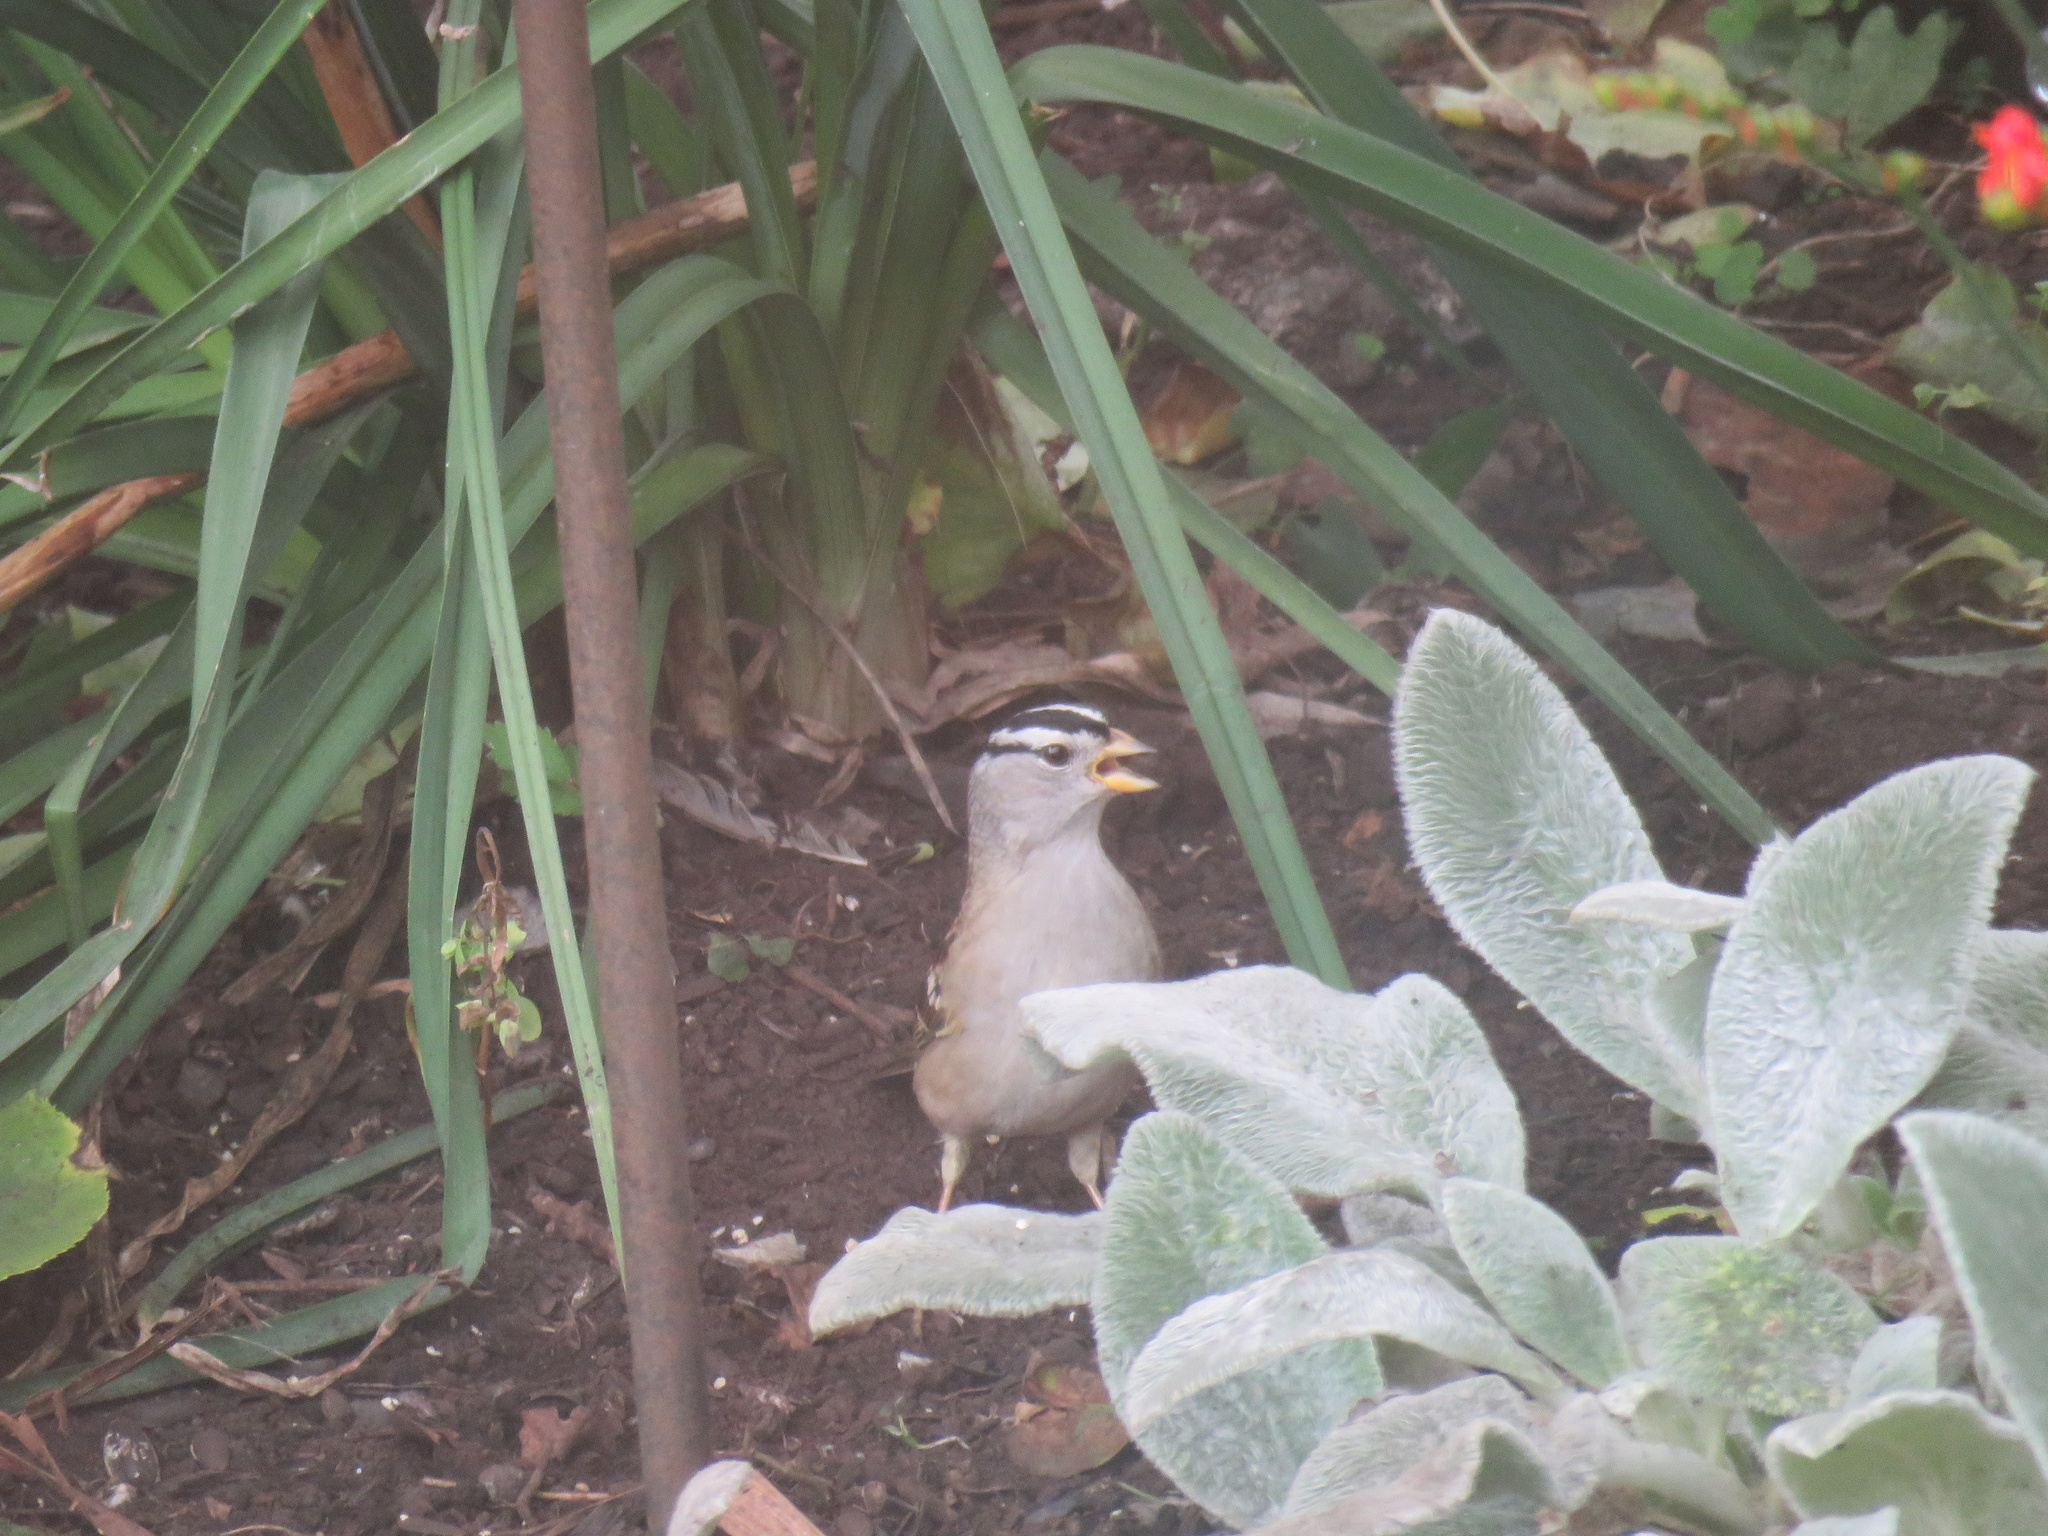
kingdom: Animalia
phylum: Chordata
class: Aves
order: Passeriformes
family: Passerellidae
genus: Zonotrichia
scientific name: Zonotrichia leucophrys
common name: White-crowned sparrow
